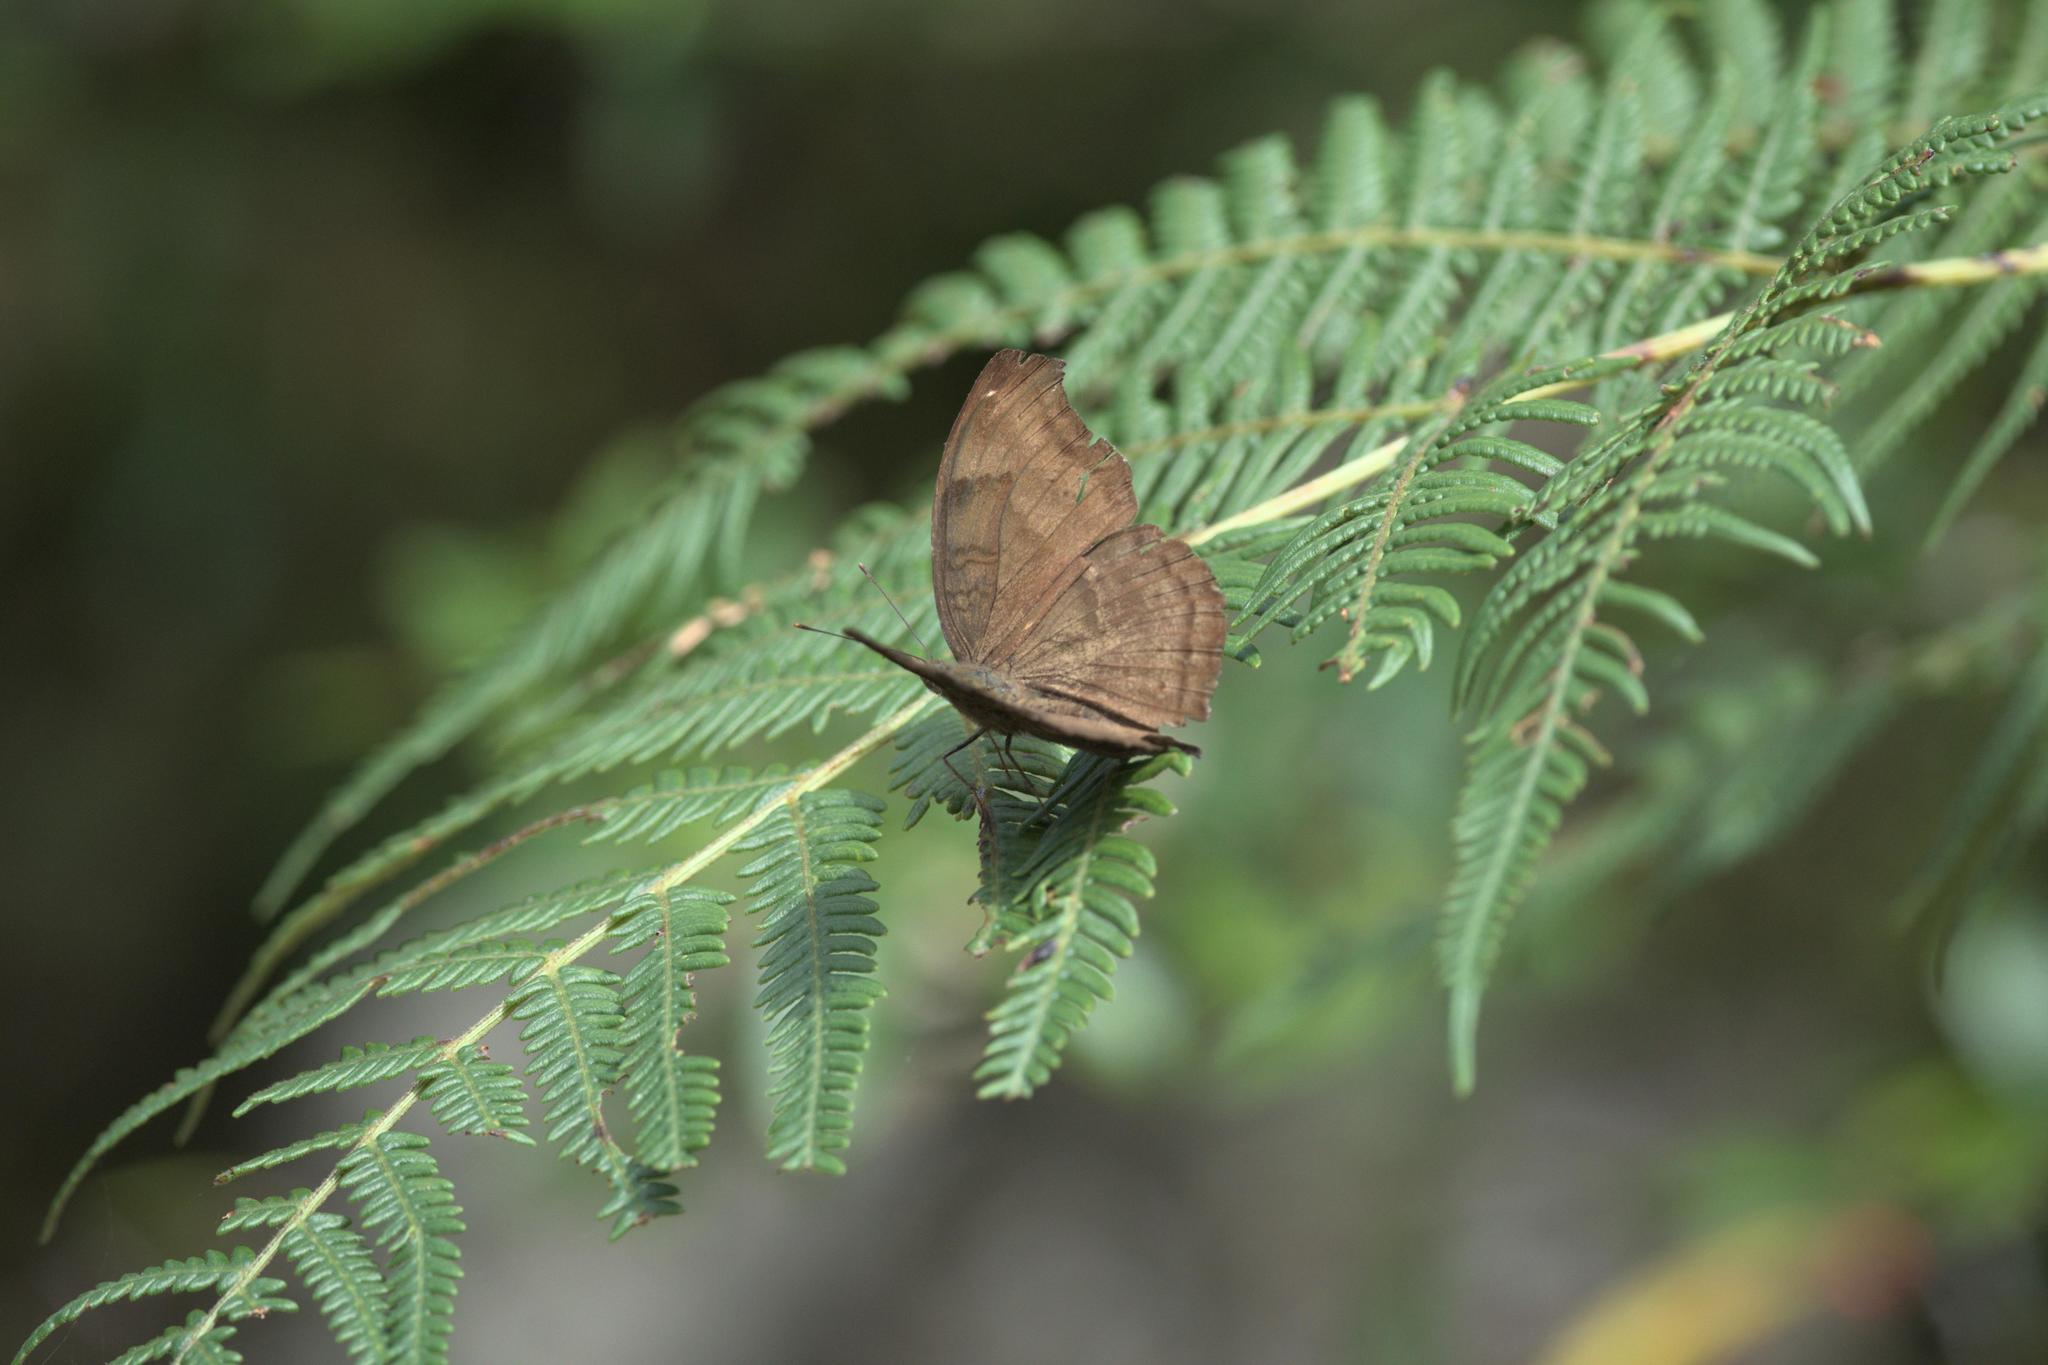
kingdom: Animalia
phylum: Arthropoda
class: Insecta
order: Lepidoptera
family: Nymphalidae
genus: Junonia
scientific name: Junonia iphita
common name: Chocolate pansy
